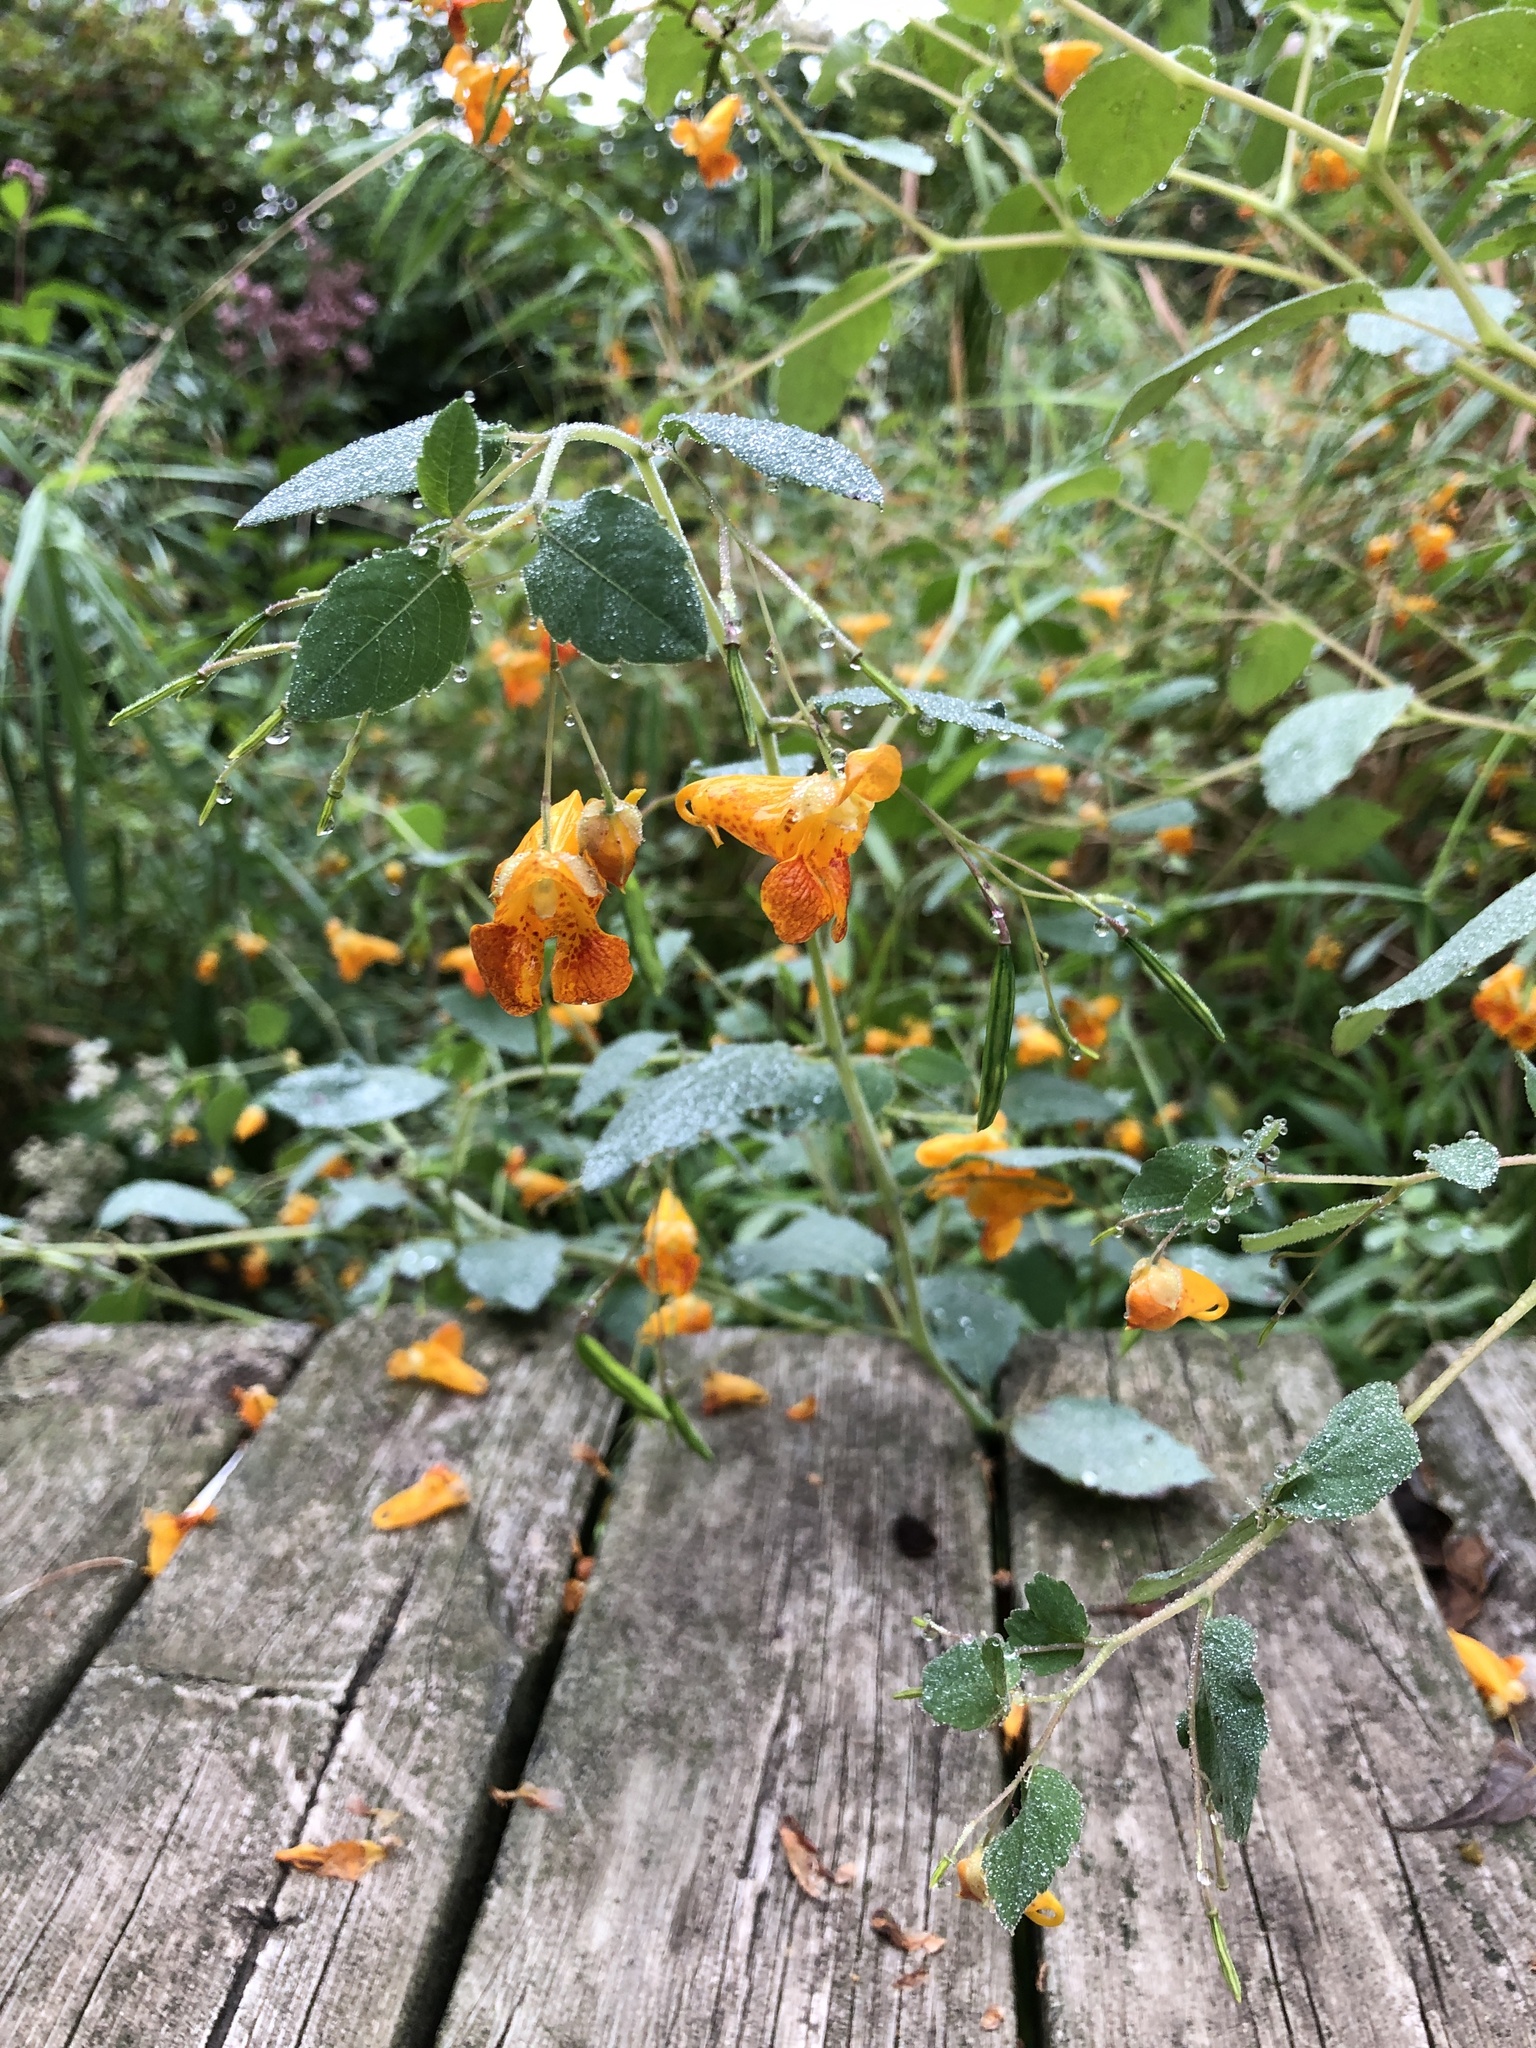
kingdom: Plantae
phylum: Tracheophyta
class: Magnoliopsida
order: Ericales
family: Balsaminaceae
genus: Impatiens
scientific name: Impatiens capensis
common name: Orange balsam
